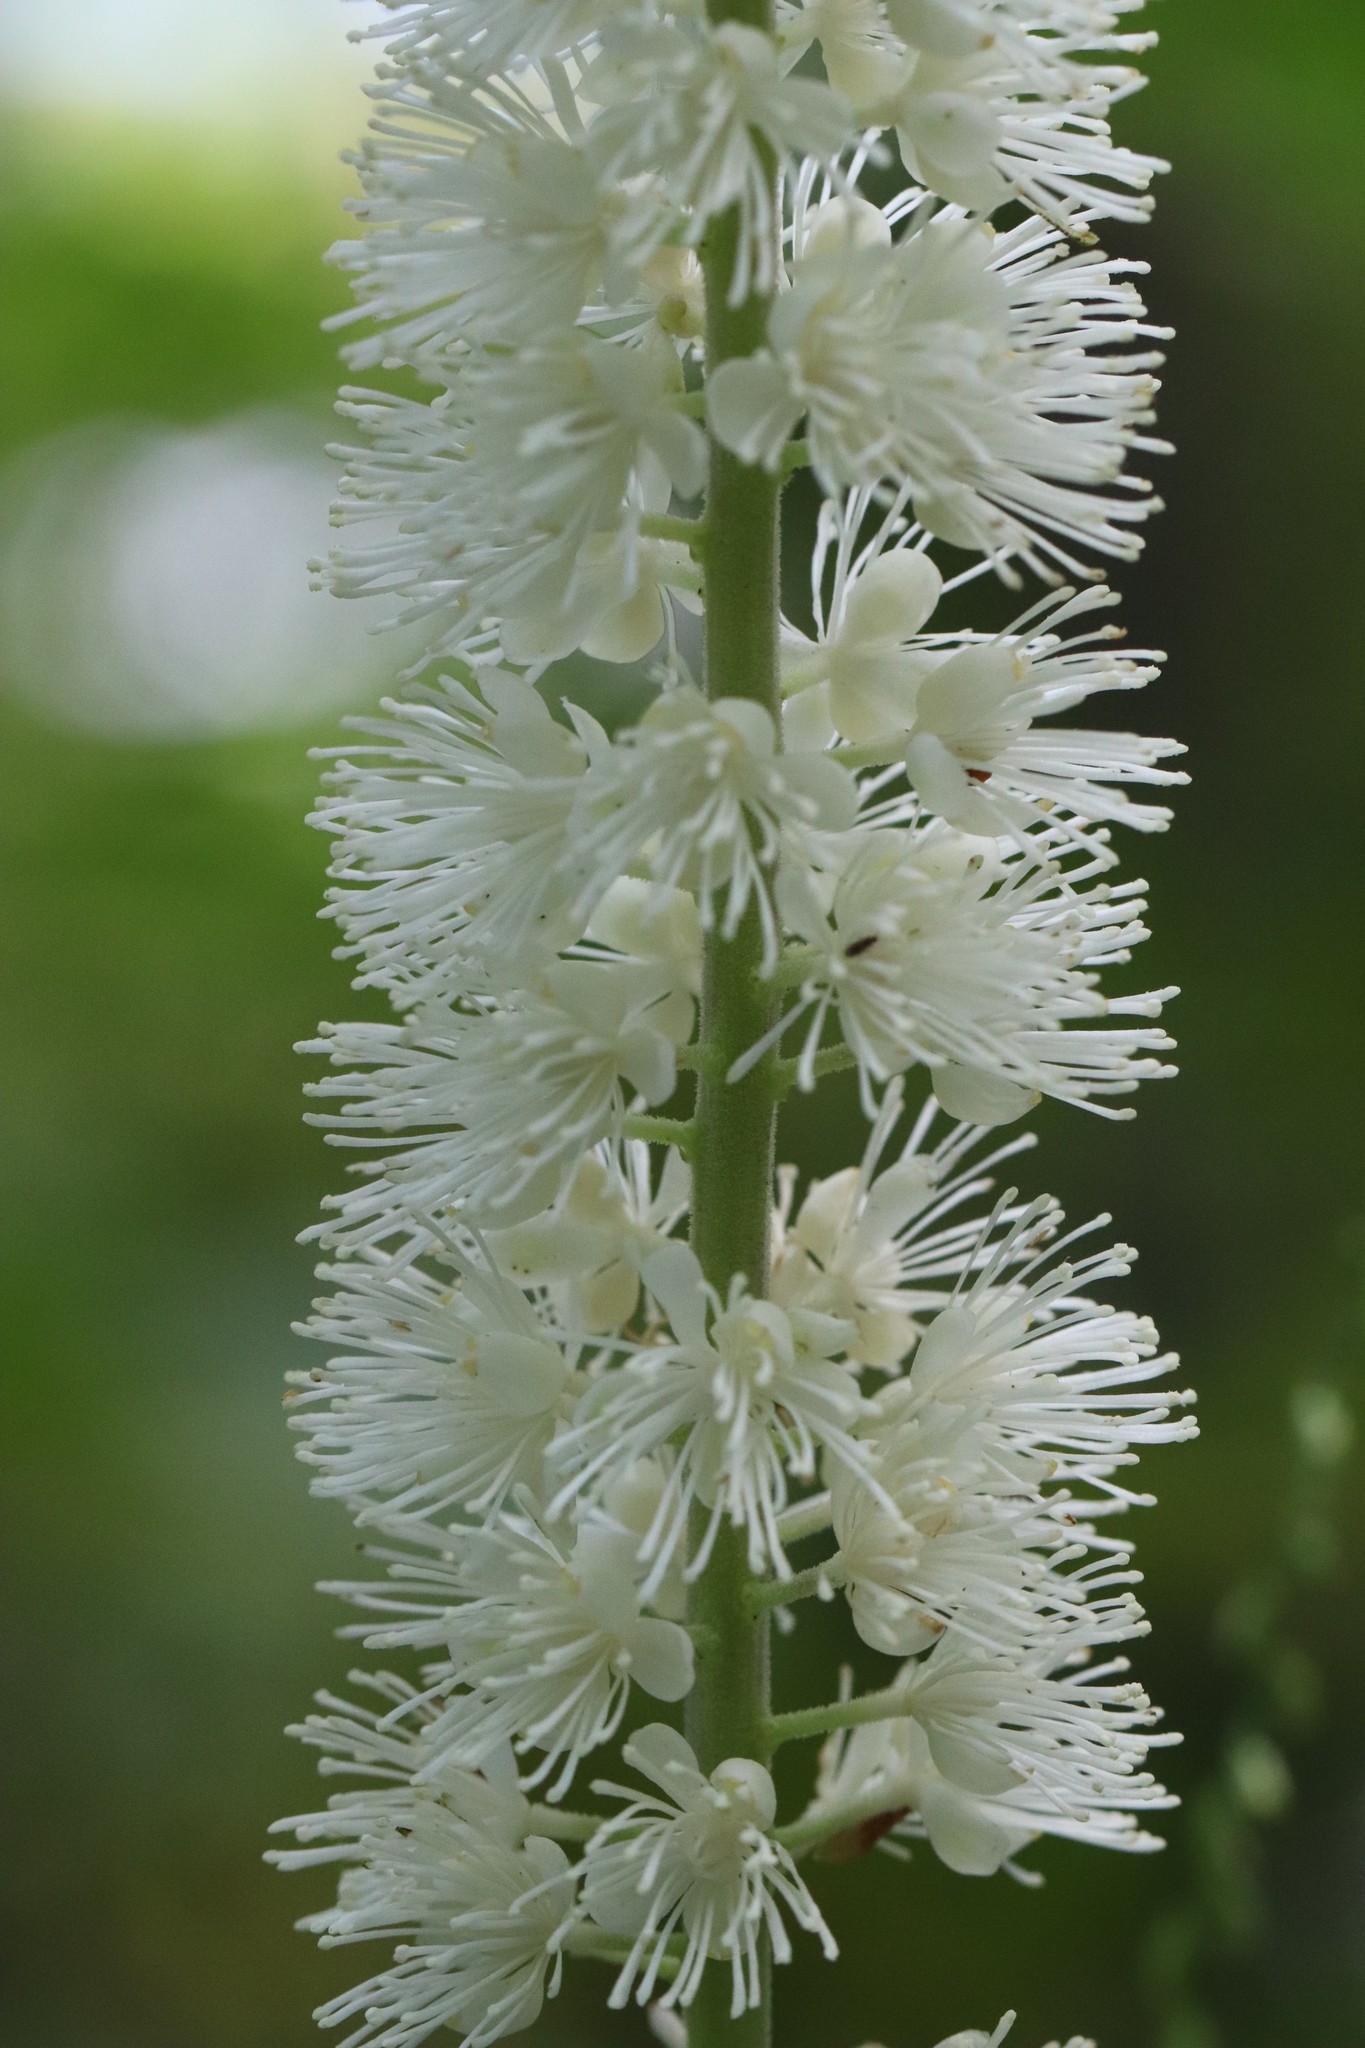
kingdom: Plantae
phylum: Tracheophyta
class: Magnoliopsida
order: Ranunculales
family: Ranunculaceae
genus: Actaea
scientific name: Actaea simplex
